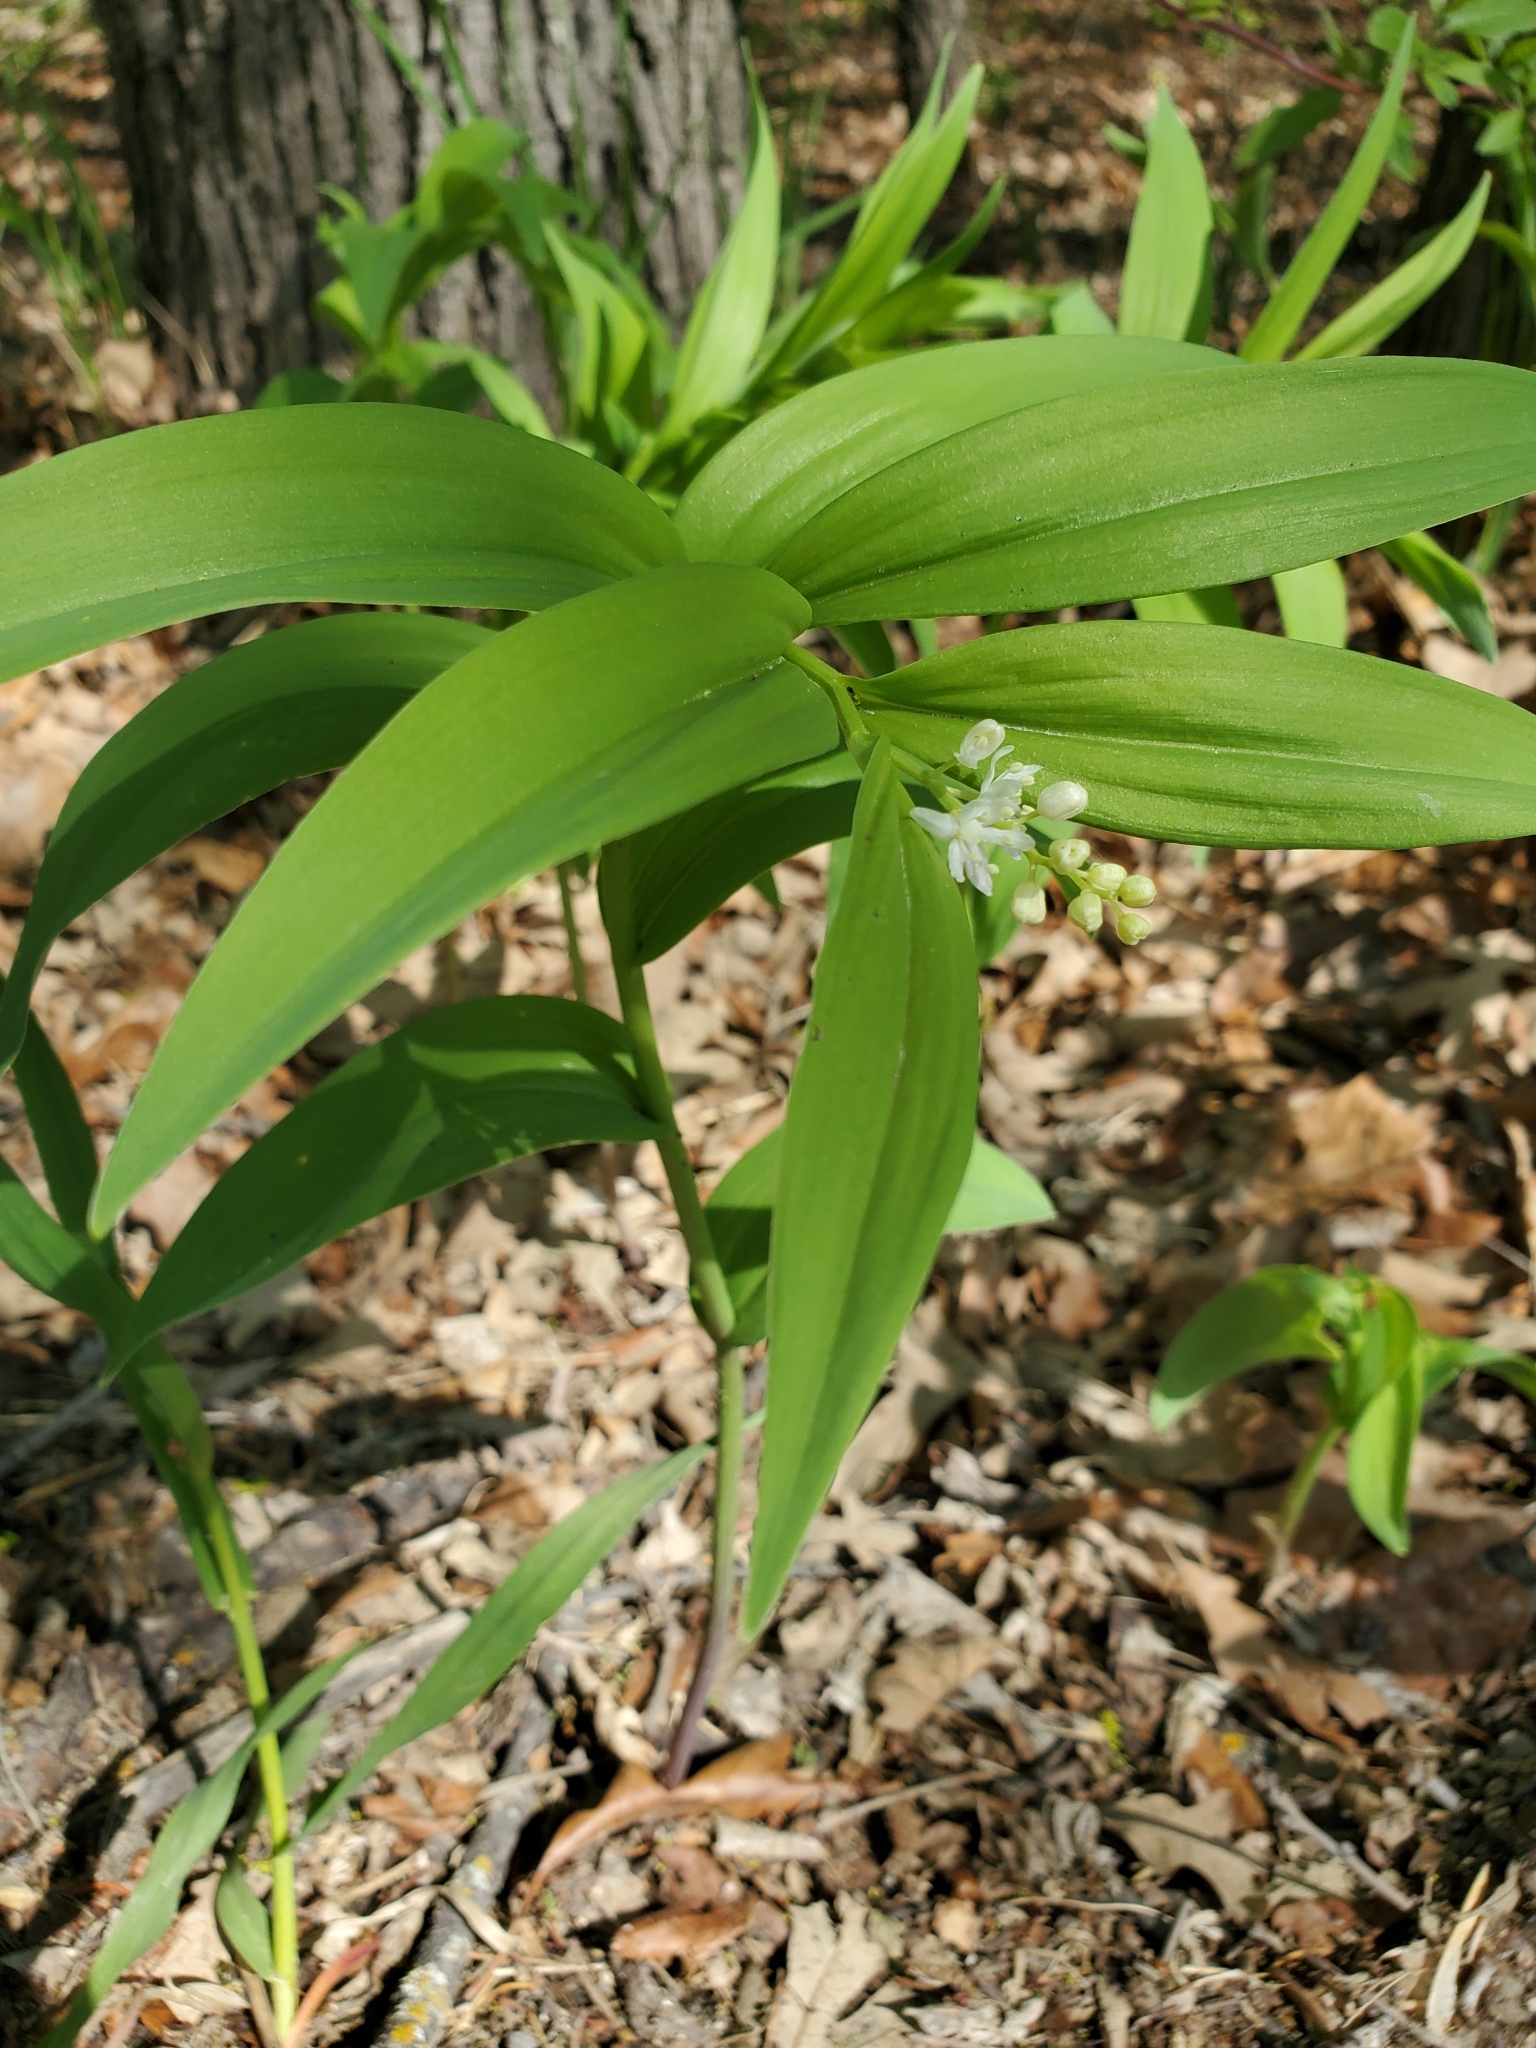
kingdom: Plantae
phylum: Tracheophyta
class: Liliopsida
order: Asparagales
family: Asparagaceae
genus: Maianthemum
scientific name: Maianthemum stellatum
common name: Little false solomon's seal
